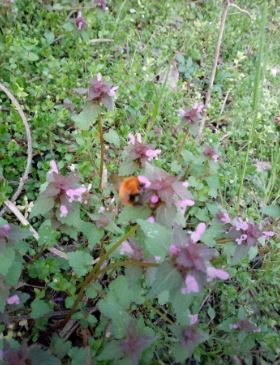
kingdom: Animalia
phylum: Arthropoda
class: Insecta
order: Hymenoptera
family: Apidae
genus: Bombus
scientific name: Bombus pascuorum
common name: Common carder bee
